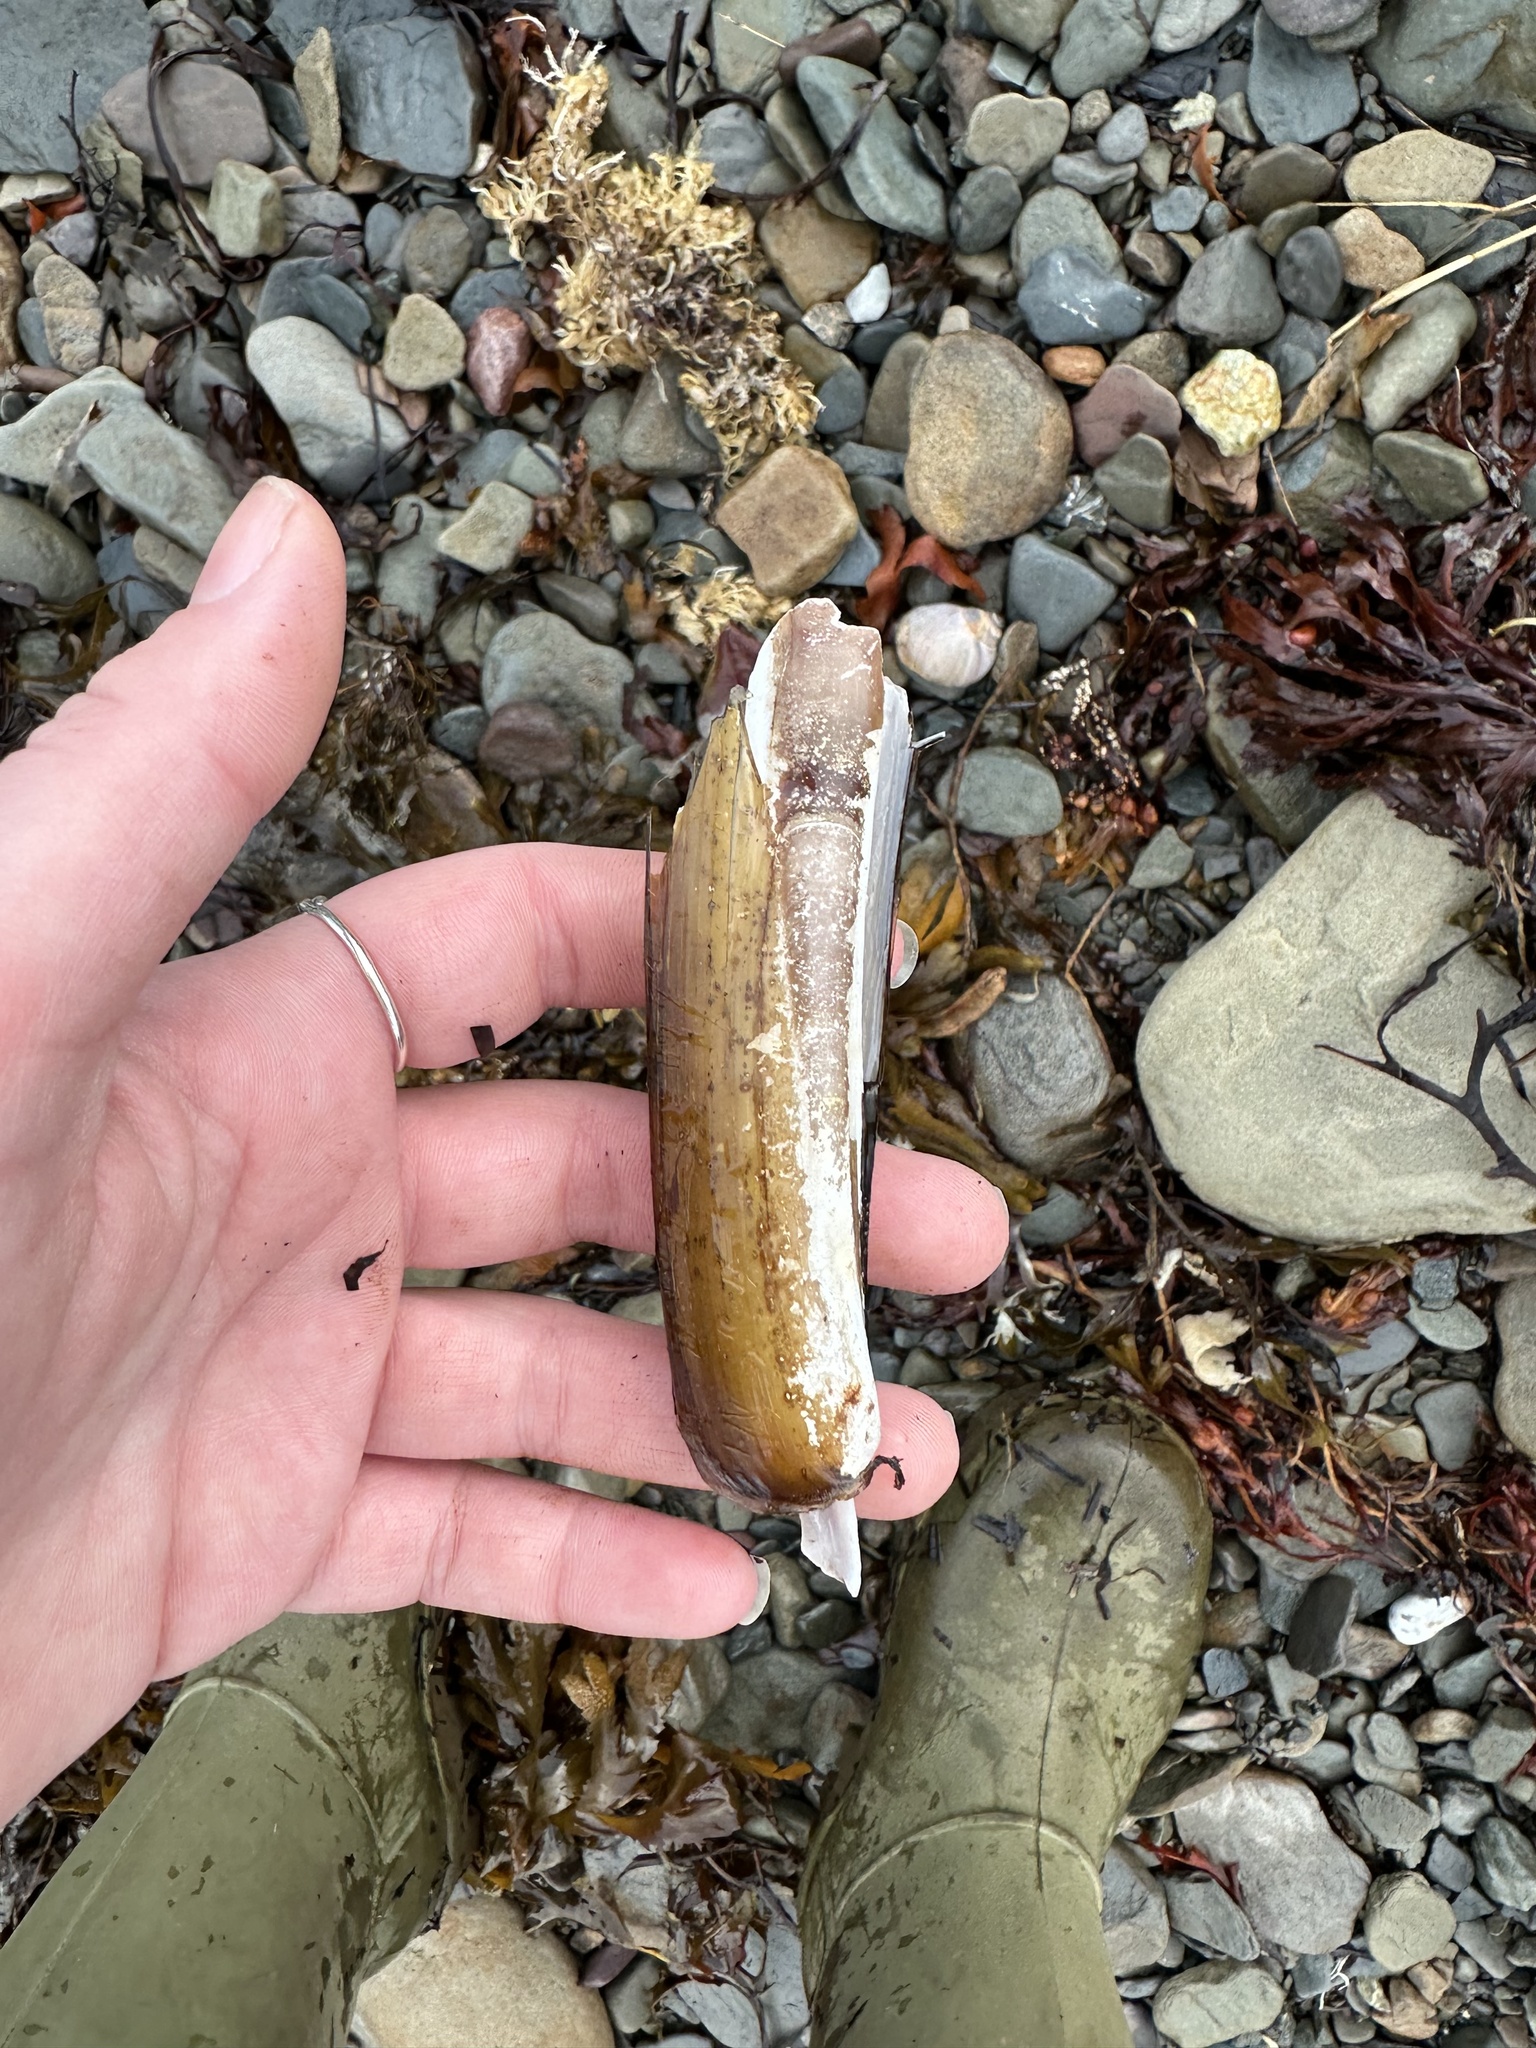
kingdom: Animalia
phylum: Mollusca
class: Bivalvia
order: Adapedonta
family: Pharidae
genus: Ensis
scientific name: Ensis leei
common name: American jack knife clam
